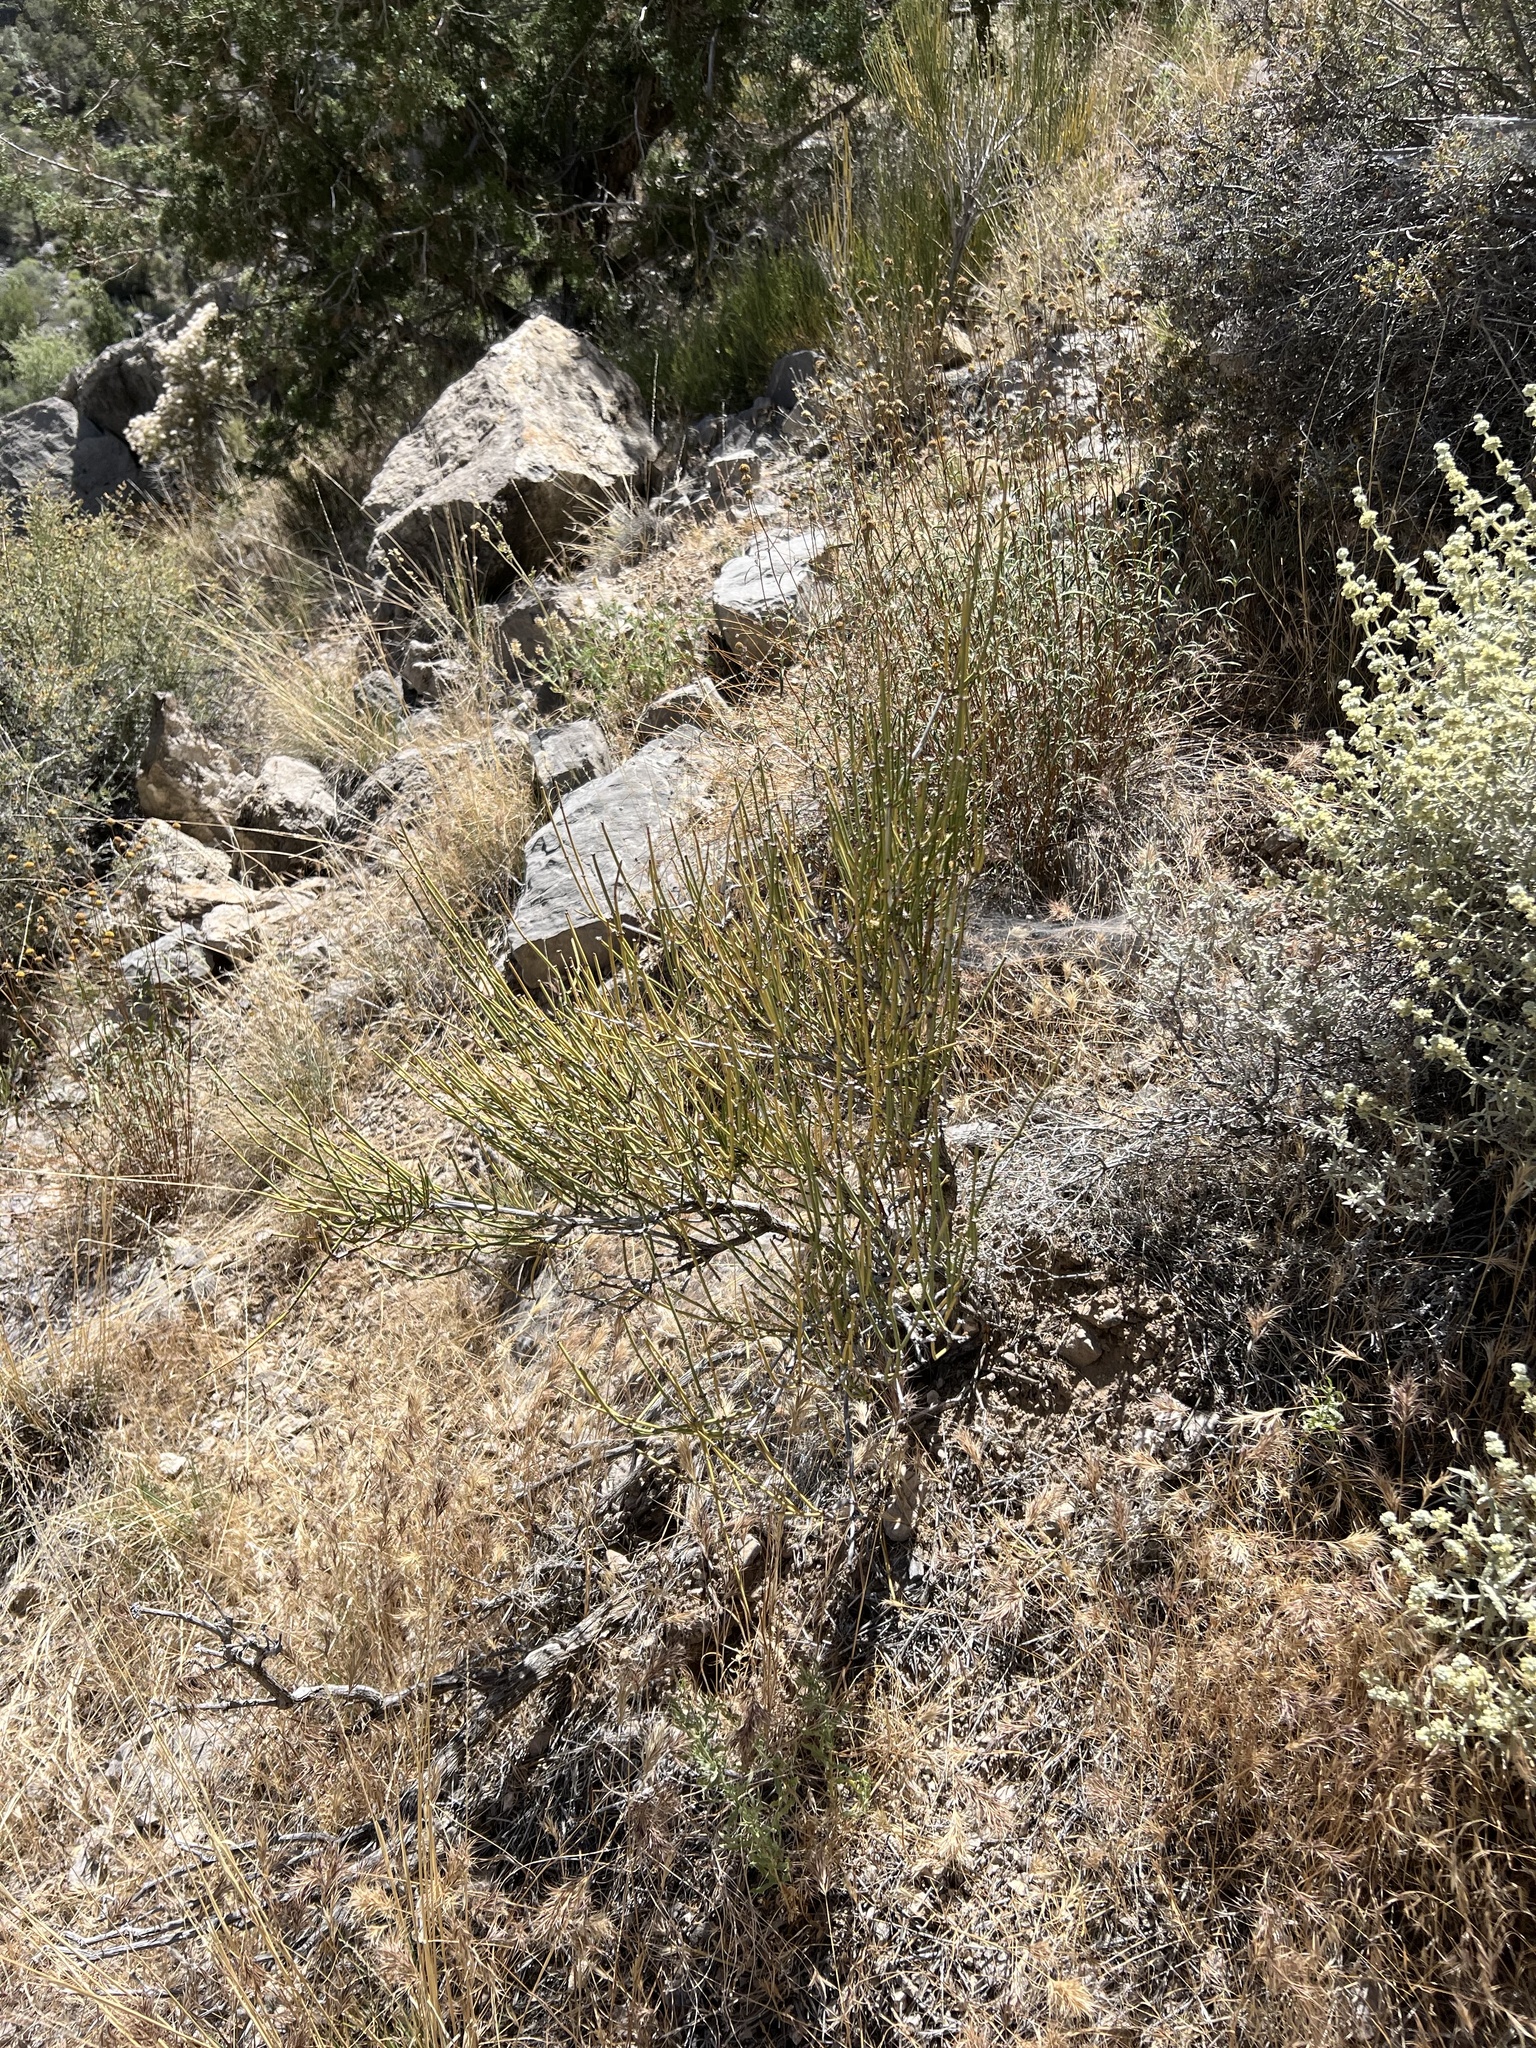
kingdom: Plantae
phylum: Tracheophyta
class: Gnetopsida
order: Ephedrales
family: Ephedraceae
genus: Ephedra
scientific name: Ephedra viridis
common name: Green ephedra
